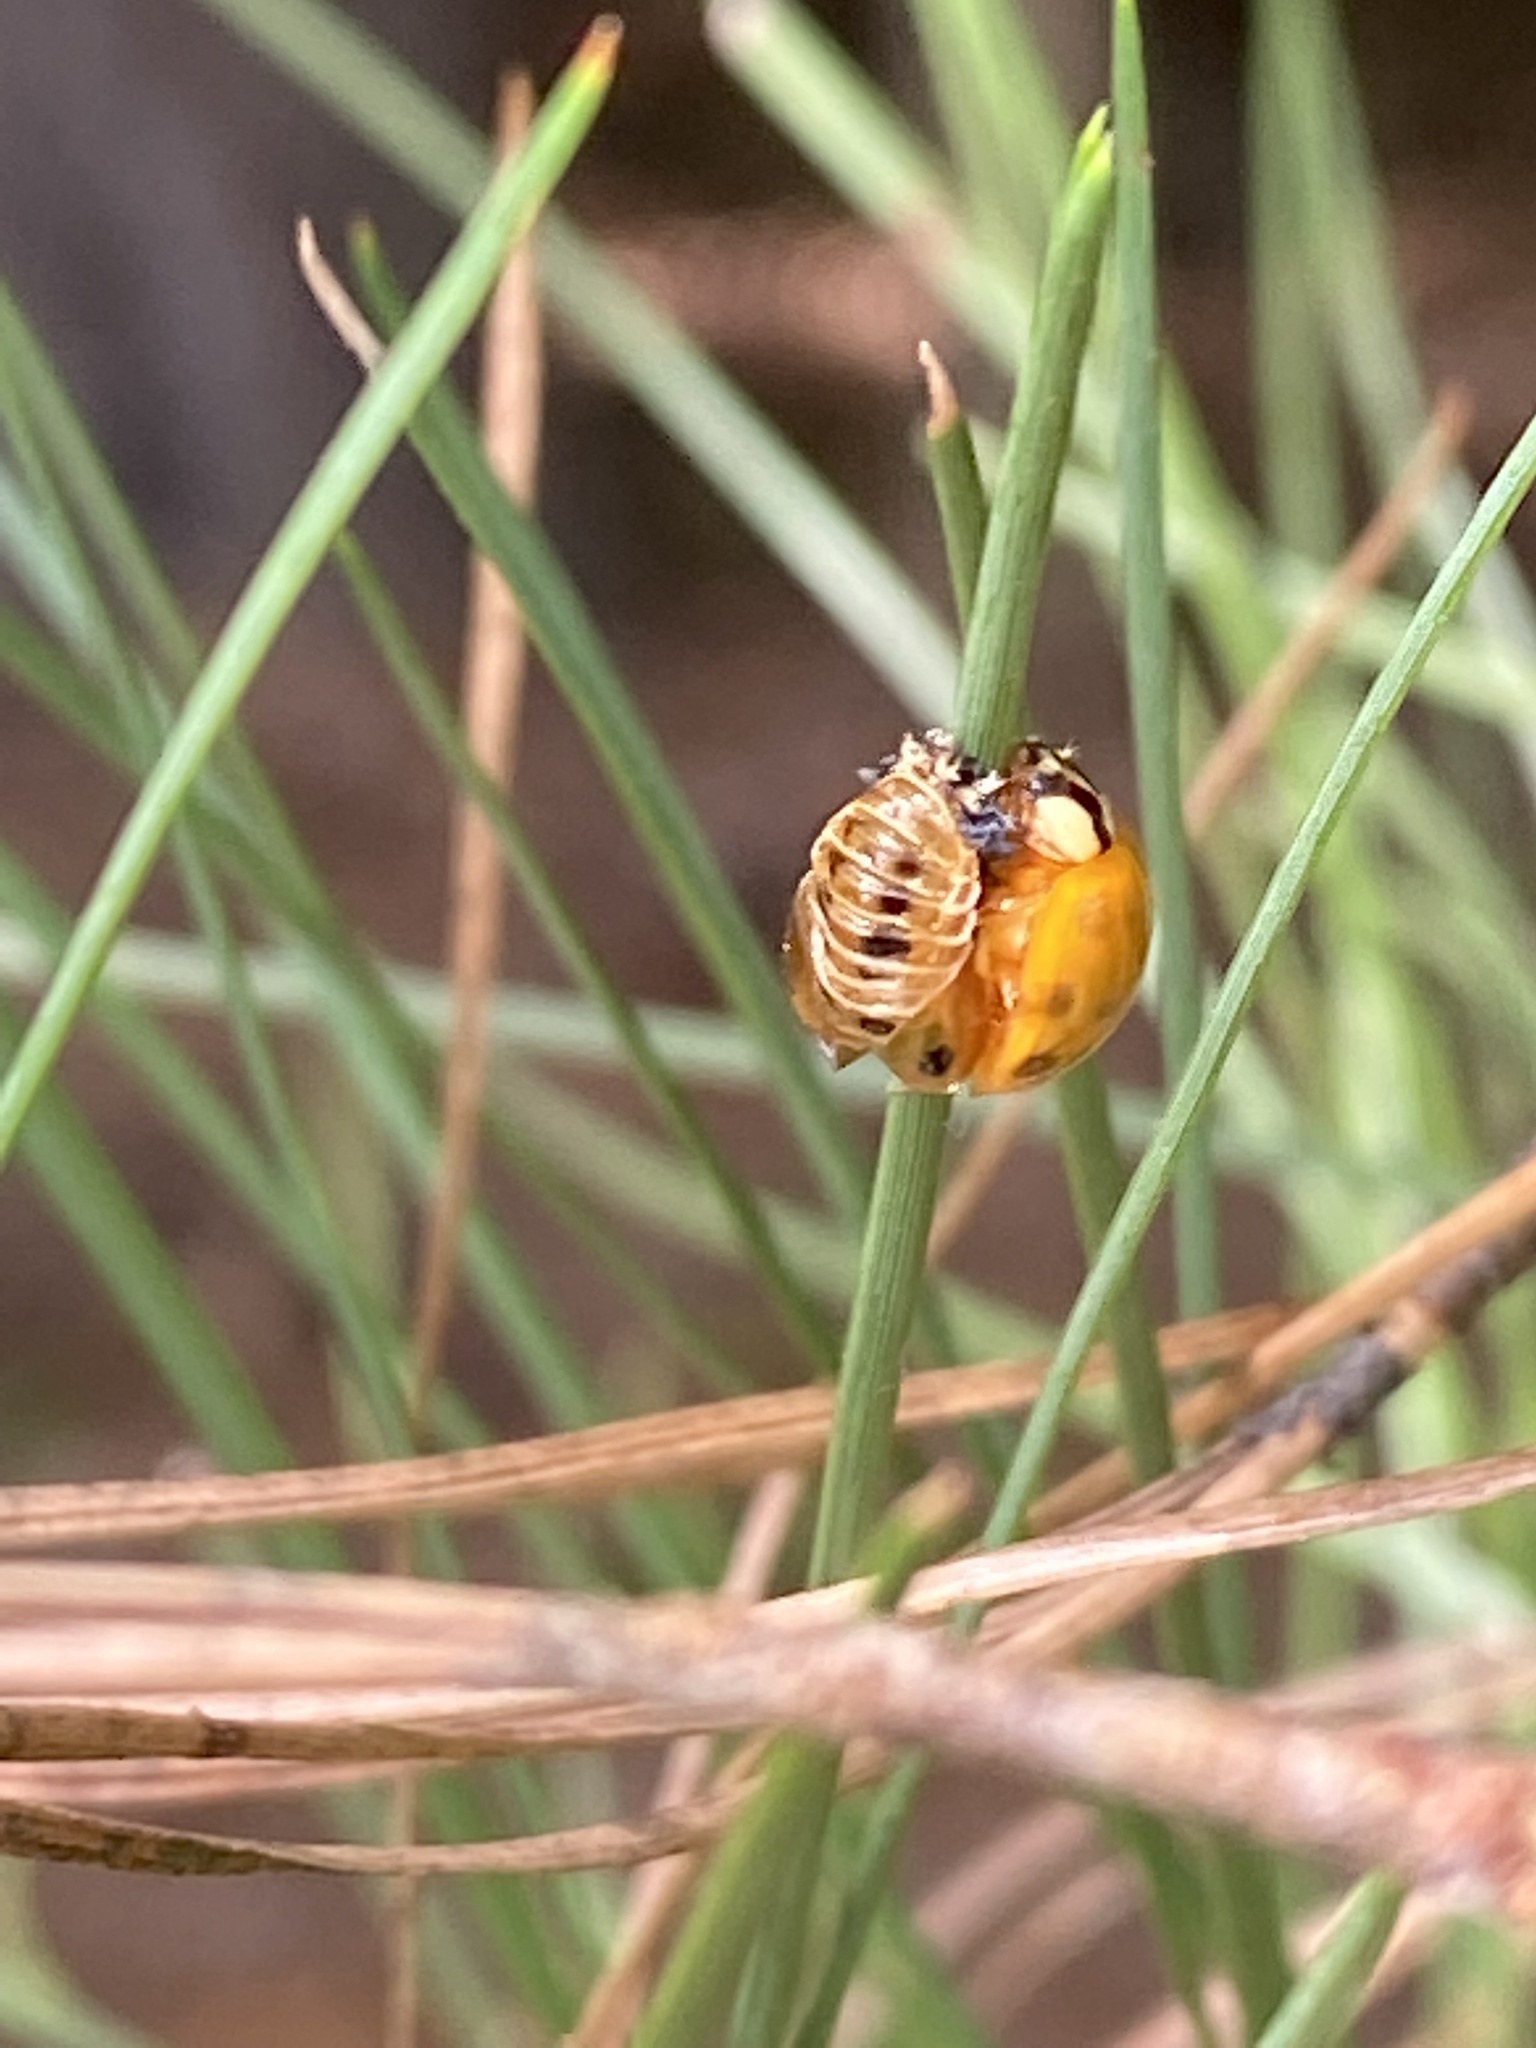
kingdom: Animalia
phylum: Arthropoda
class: Insecta
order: Coleoptera
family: Coccinellidae
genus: Harmonia
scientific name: Harmonia axyridis
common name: Harlequin ladybird
